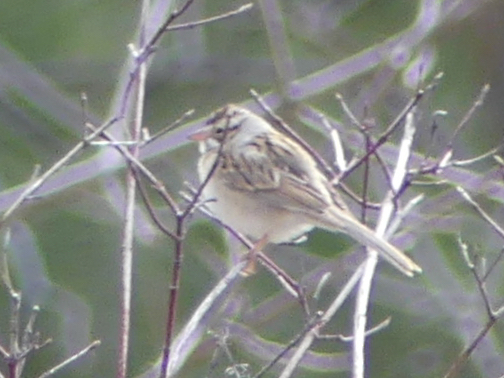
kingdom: Animalia
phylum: Chordata
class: Aves
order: Passeriformes
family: Passerellidae
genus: Spizella
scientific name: Spizella pallida
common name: Clay-colored sparrow
